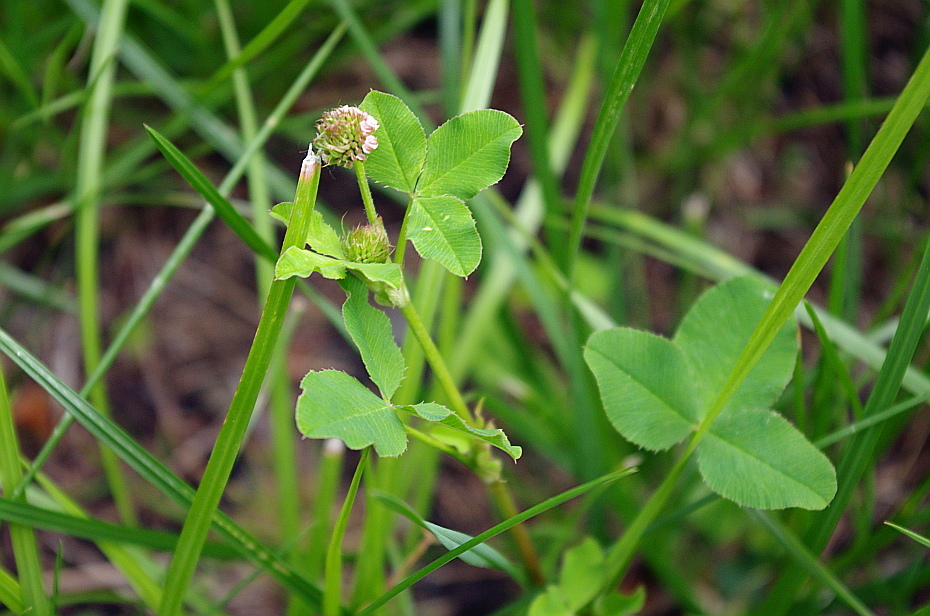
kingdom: Plantae
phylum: Tracheophyta
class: Magnoliopsida
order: Fabales
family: Fabaceae
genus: Trifolium
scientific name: Trifolium hybridum
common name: Alsike clover
